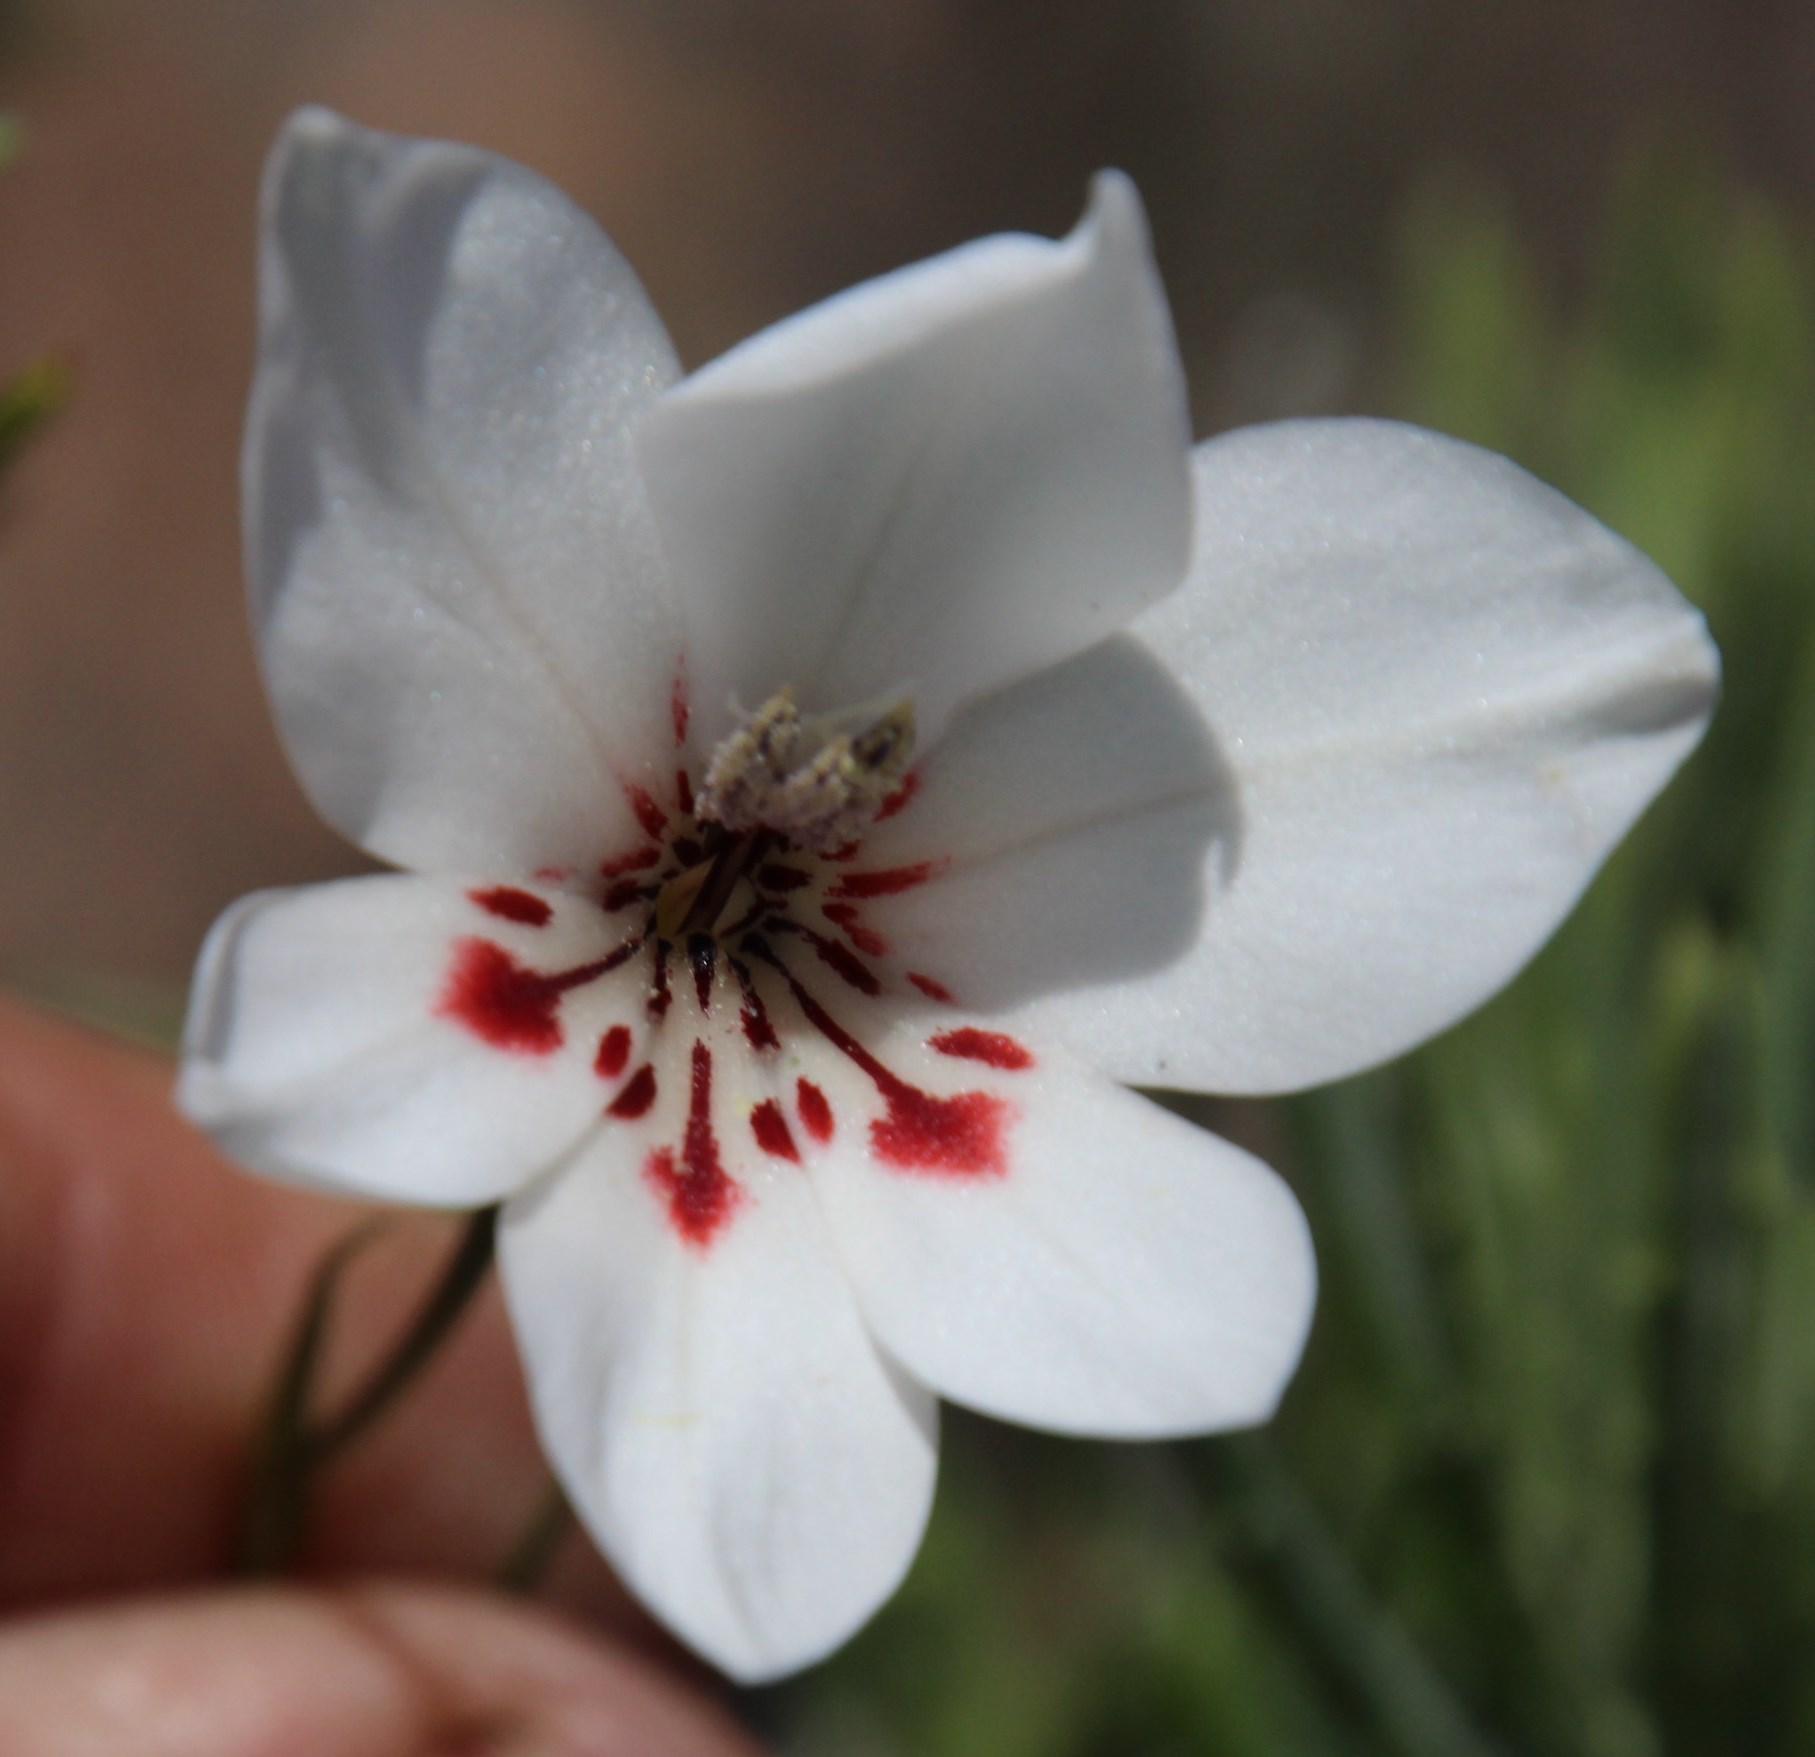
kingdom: Plantae
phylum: Tracheophyta
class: Liliopsida
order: Asparagales
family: Iridaceae
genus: Gladiolus
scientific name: Gladiolus debilis
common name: Painted-lady
